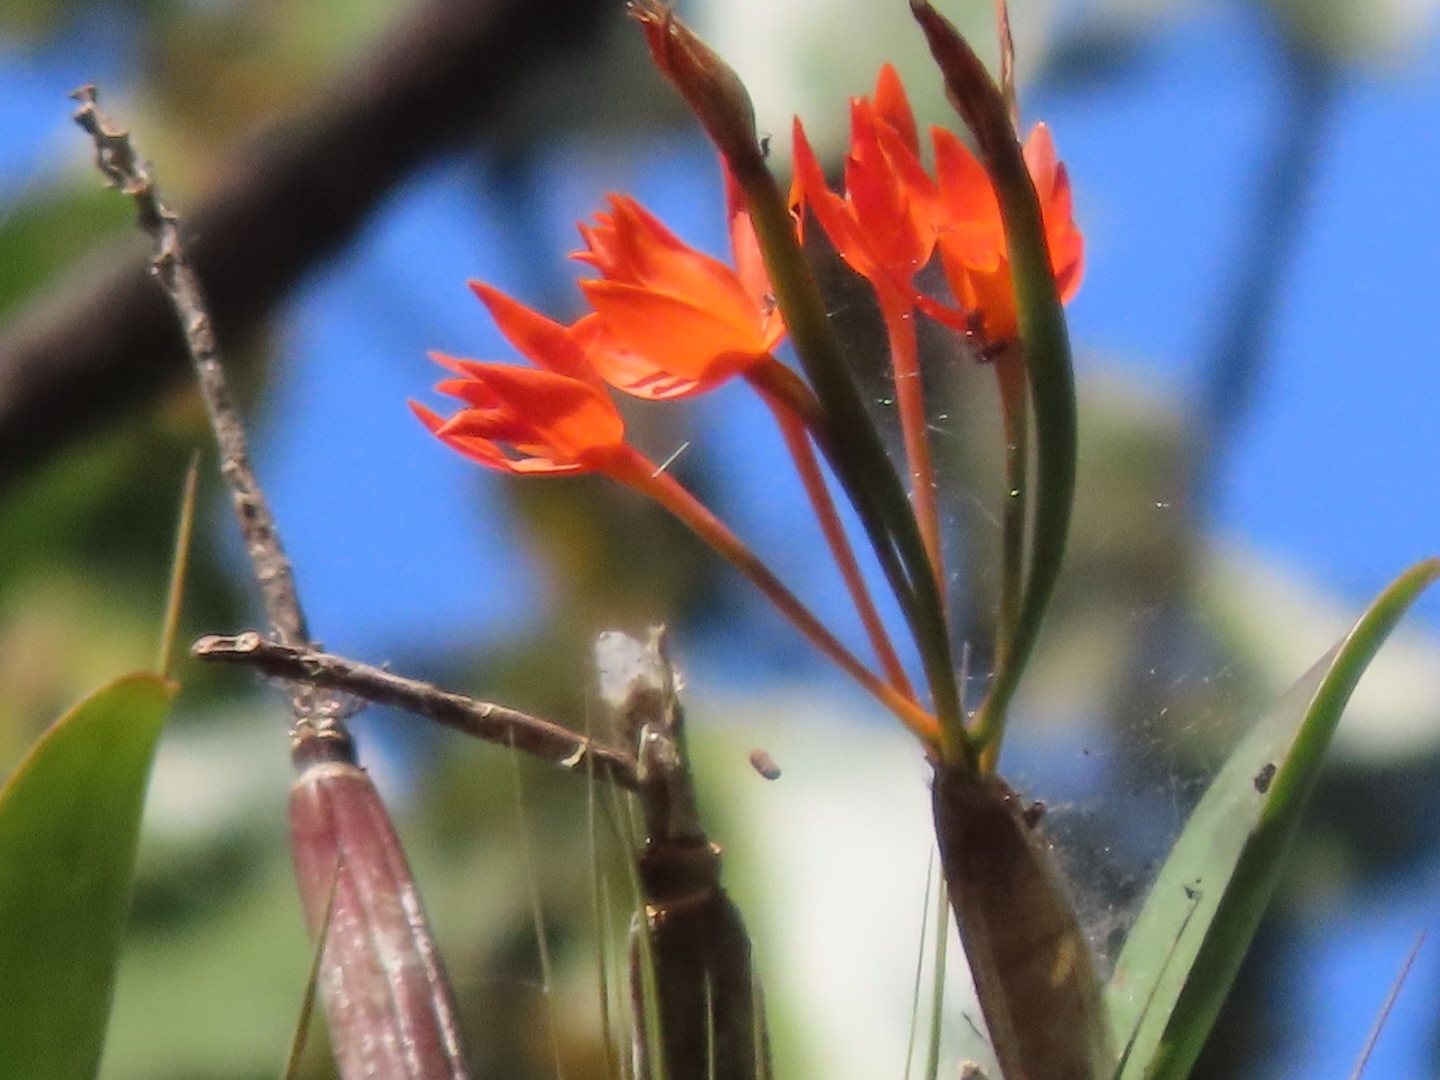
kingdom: Plantae
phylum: Tracheophyta
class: Liliopsida
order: Asparagales
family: Orchidaceae
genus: Guarianthe
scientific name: Guarianthe aurantiaca
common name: Orange cattleya
